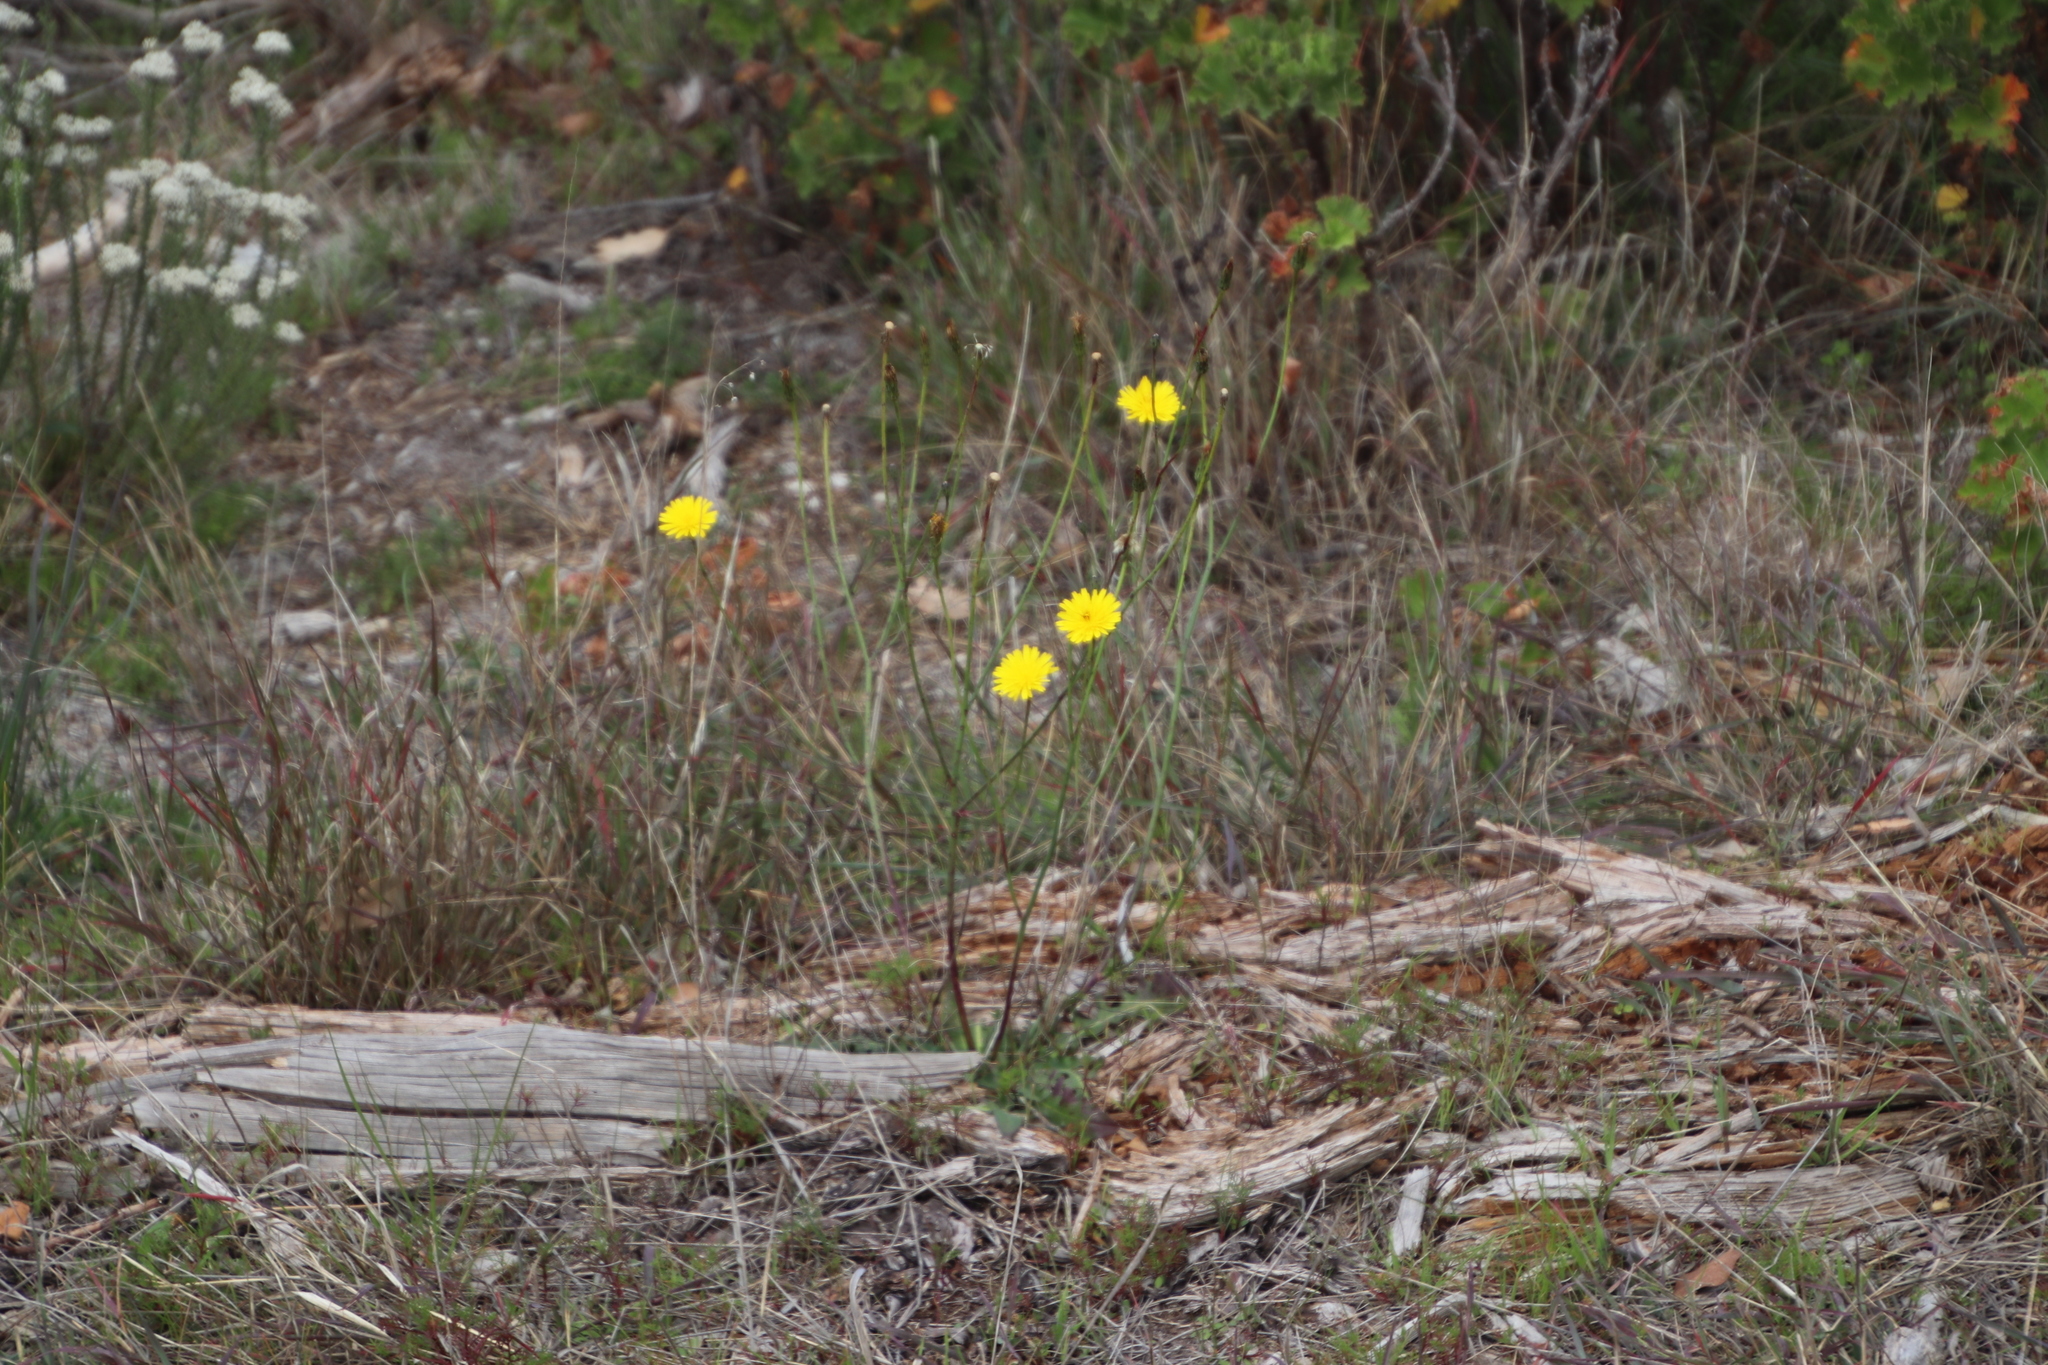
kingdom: Plantae
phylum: Tracheophyta
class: Magnoliopsida
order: Asterales
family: Asteraceae
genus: Hypochaeris
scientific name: Hypochaeris radicata
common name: Flatweed
